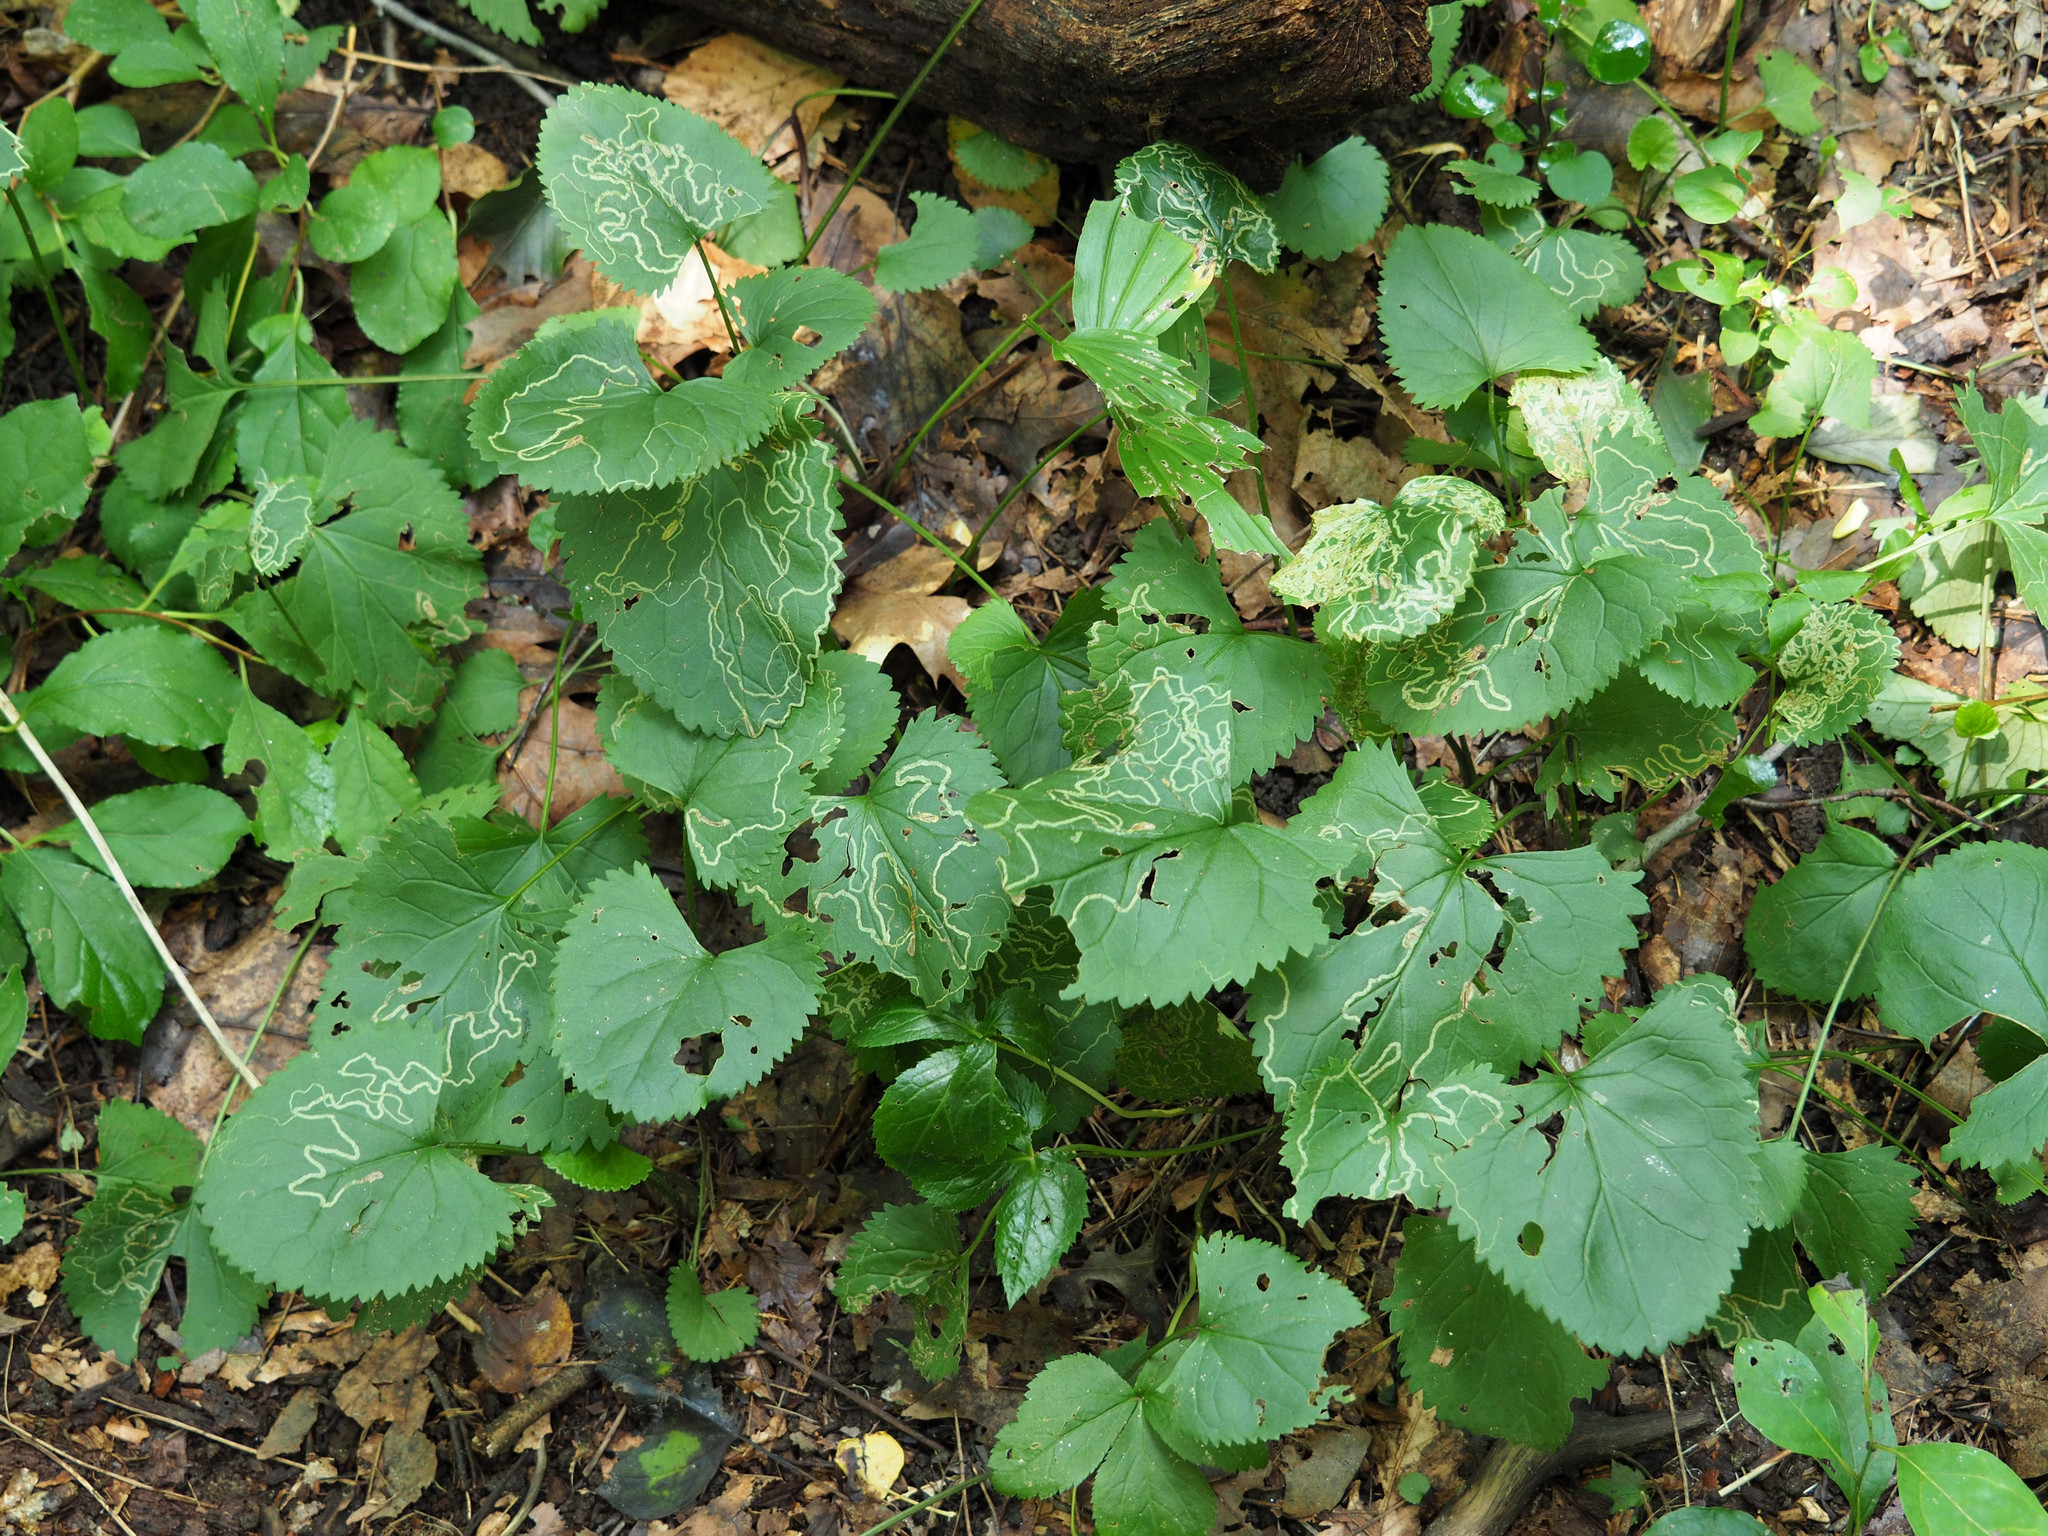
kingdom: Animalia
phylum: Arthropoda
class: Insecta
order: Lepidoptera
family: Gracillariidae
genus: Phyllocnistis
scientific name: Phyllocnistis insignis
